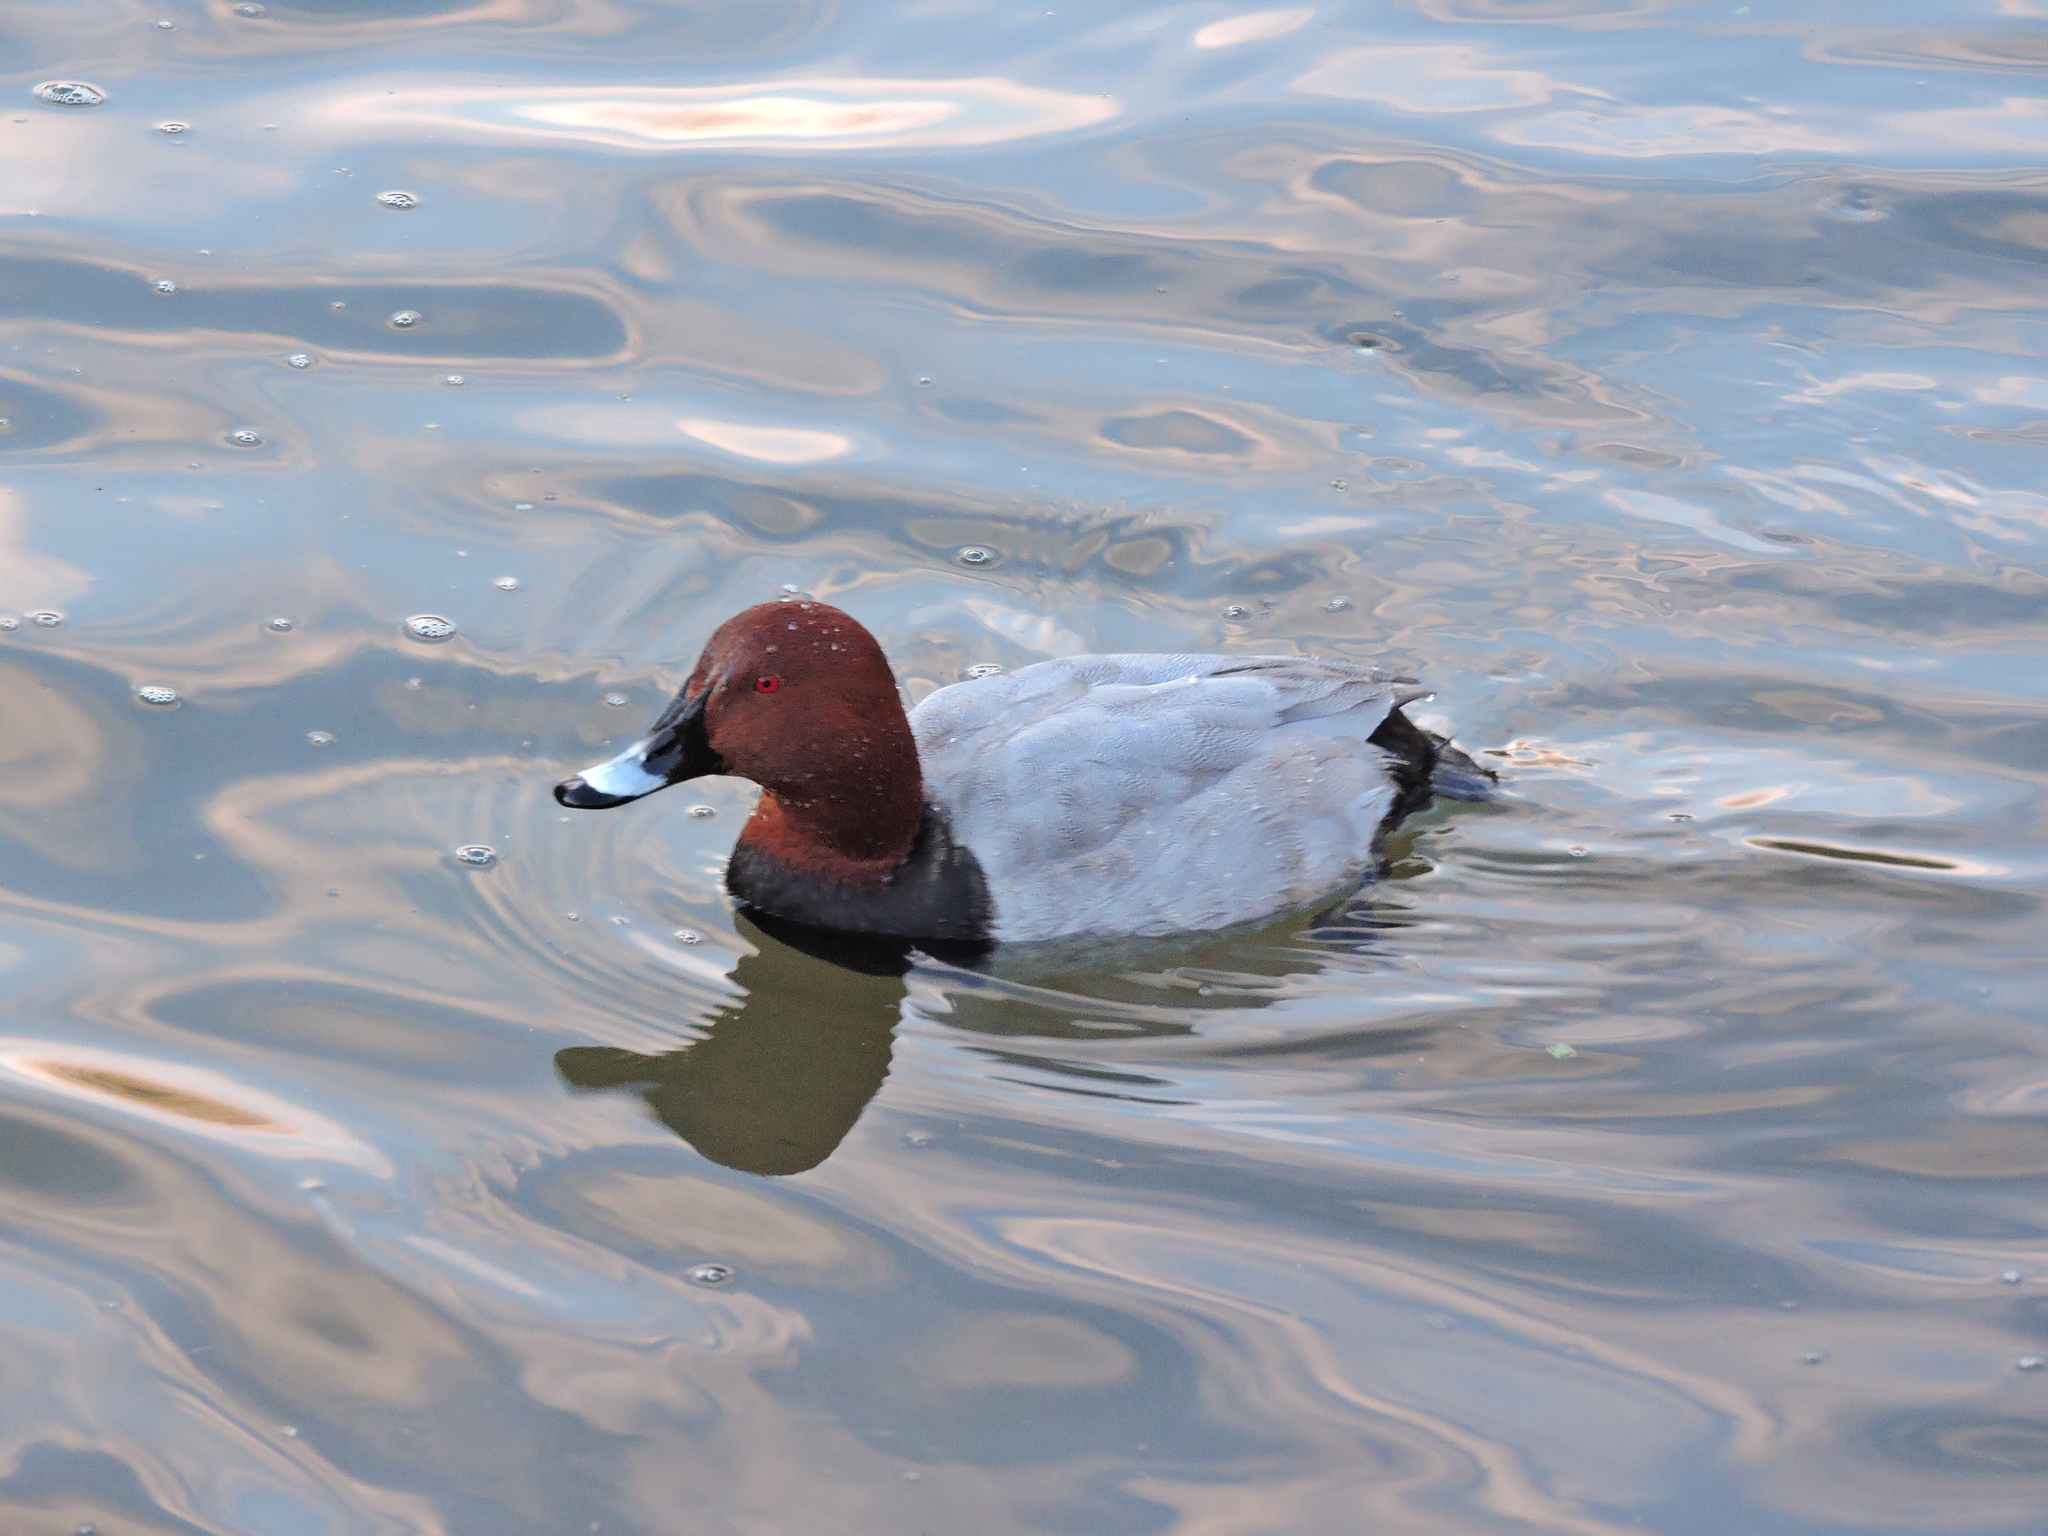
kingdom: Animalia
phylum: Chordata
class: Aves
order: Anseriformes
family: Anatidae
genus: Aythya
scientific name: Aythya ferina
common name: Common pochard
